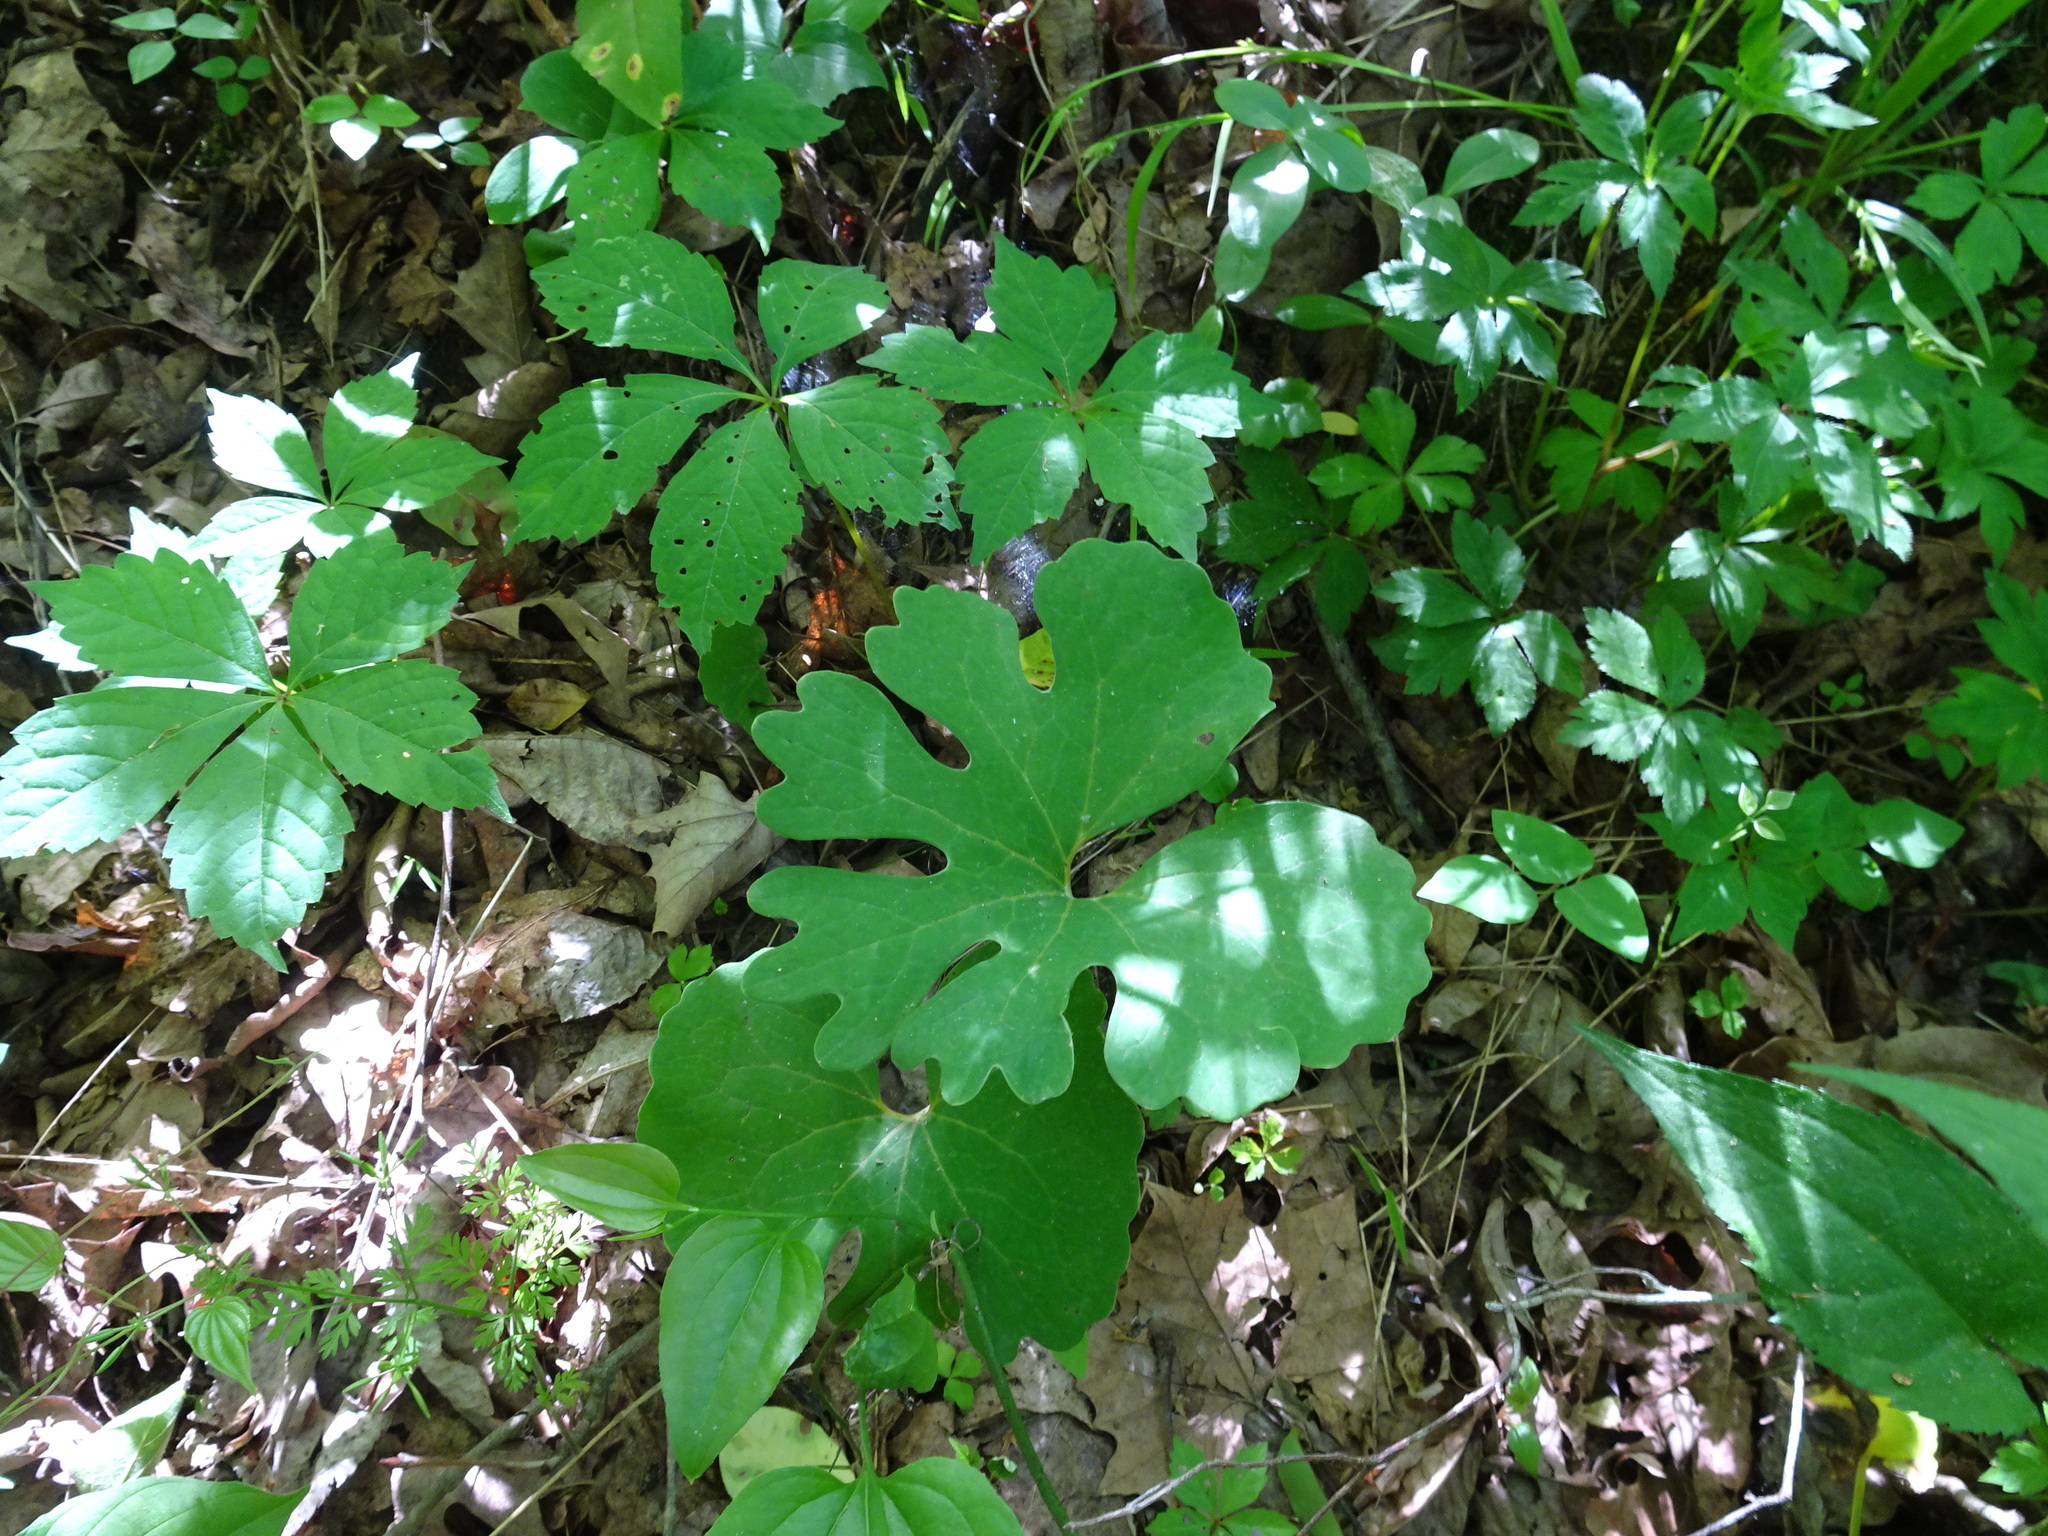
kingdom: Plantae
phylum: Tracheophyta
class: Magnoliopsida
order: Ranunculales
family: Papaveraceae
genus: Sanguinaria
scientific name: Sanguinaria canadensis
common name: Bloodroot
